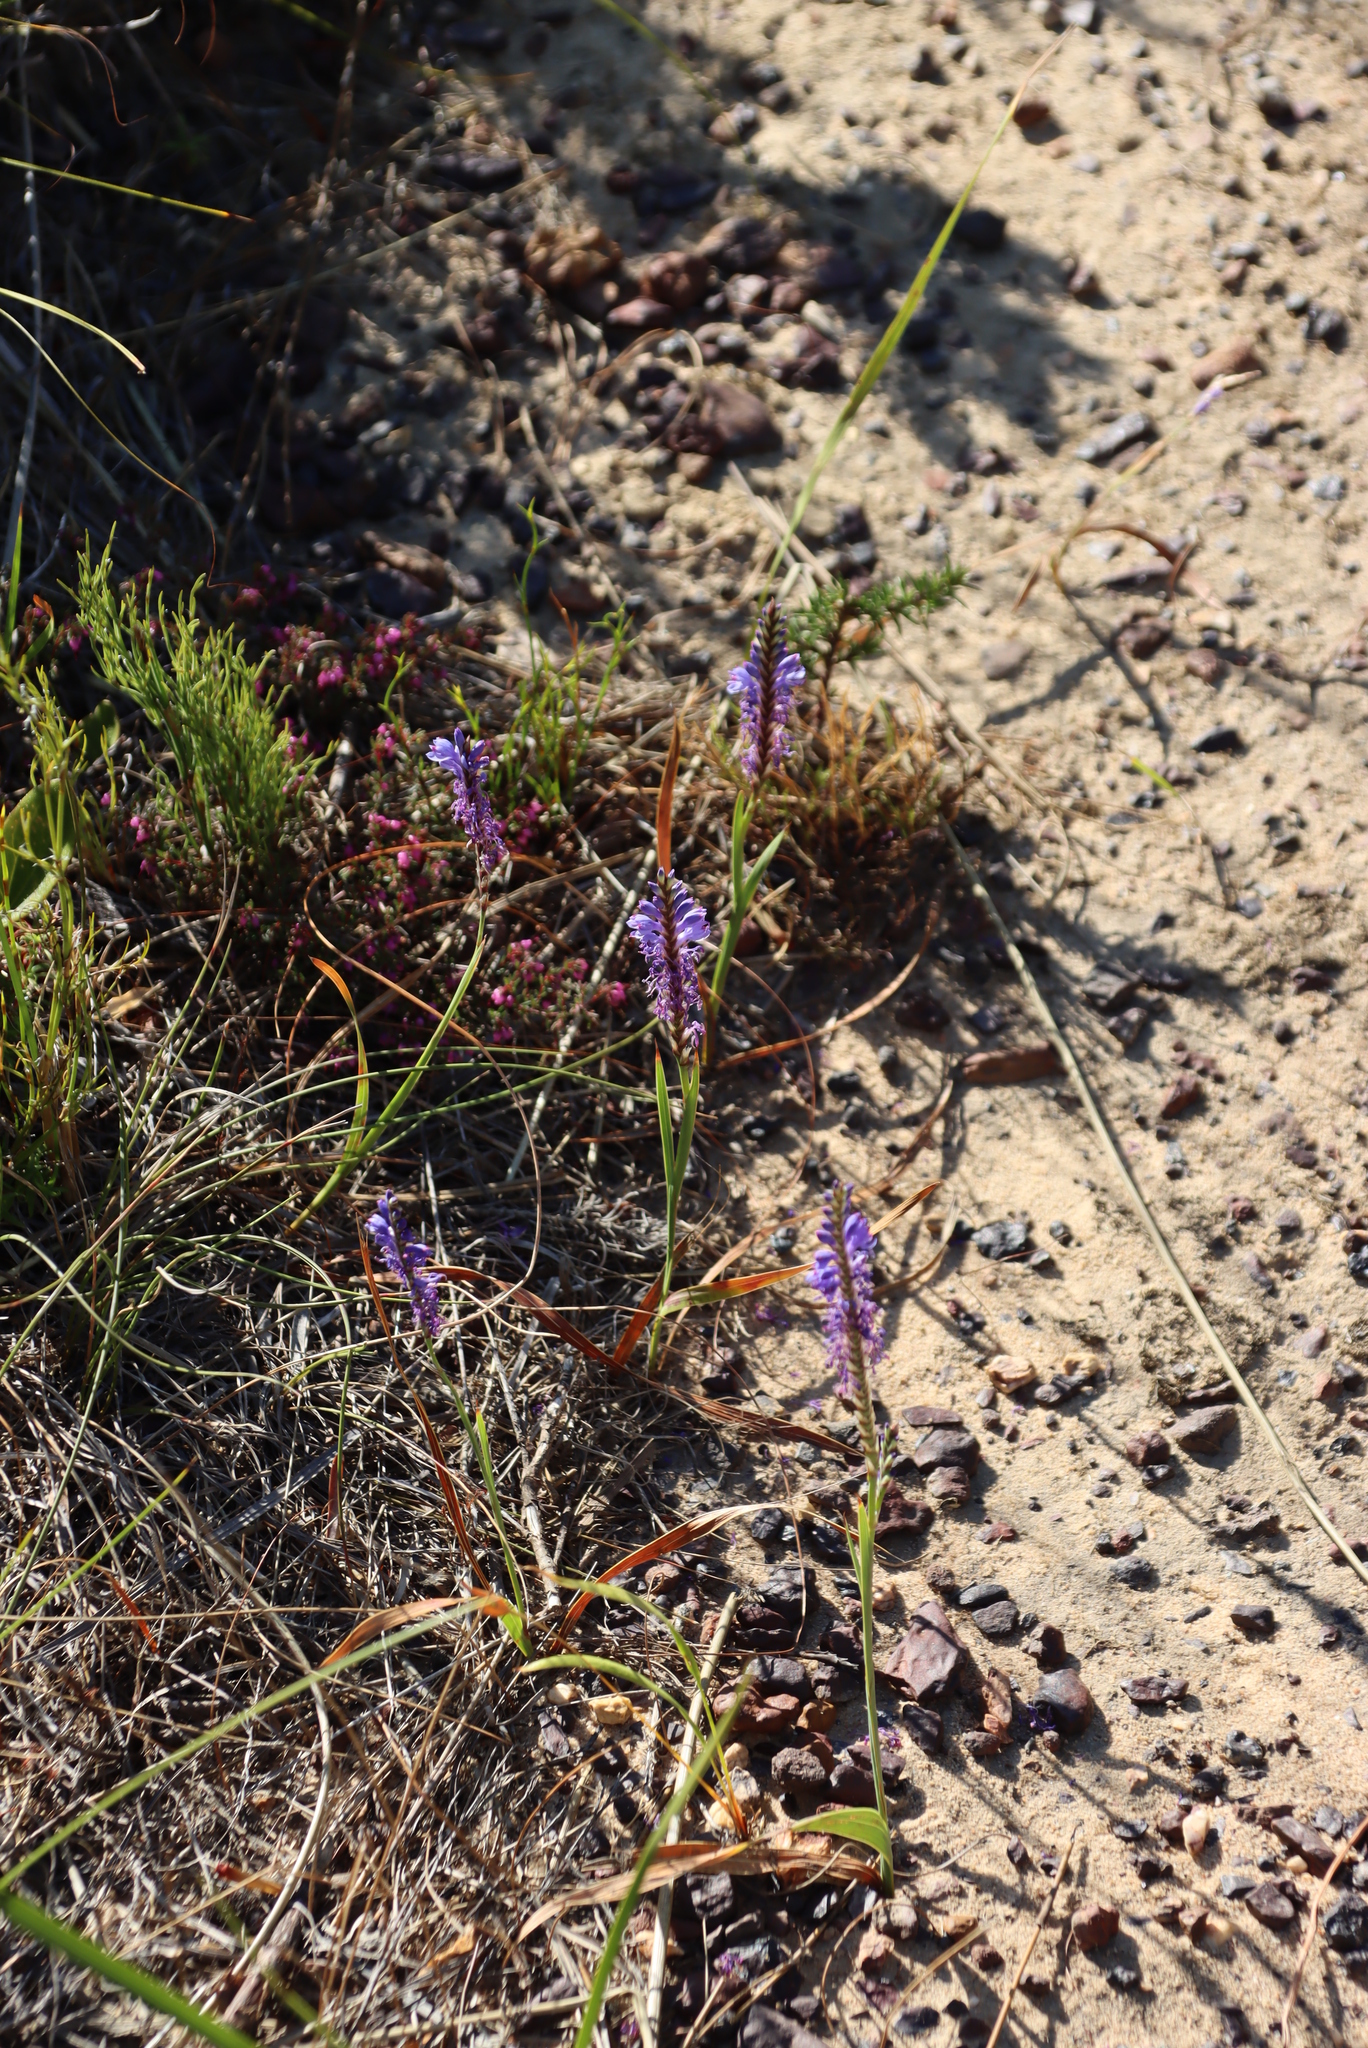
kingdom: Plantae
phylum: Tracheophyta
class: Liliopsida
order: Asparagales
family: Iridaceae
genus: Micranthus
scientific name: Micranthus alopecuroides
